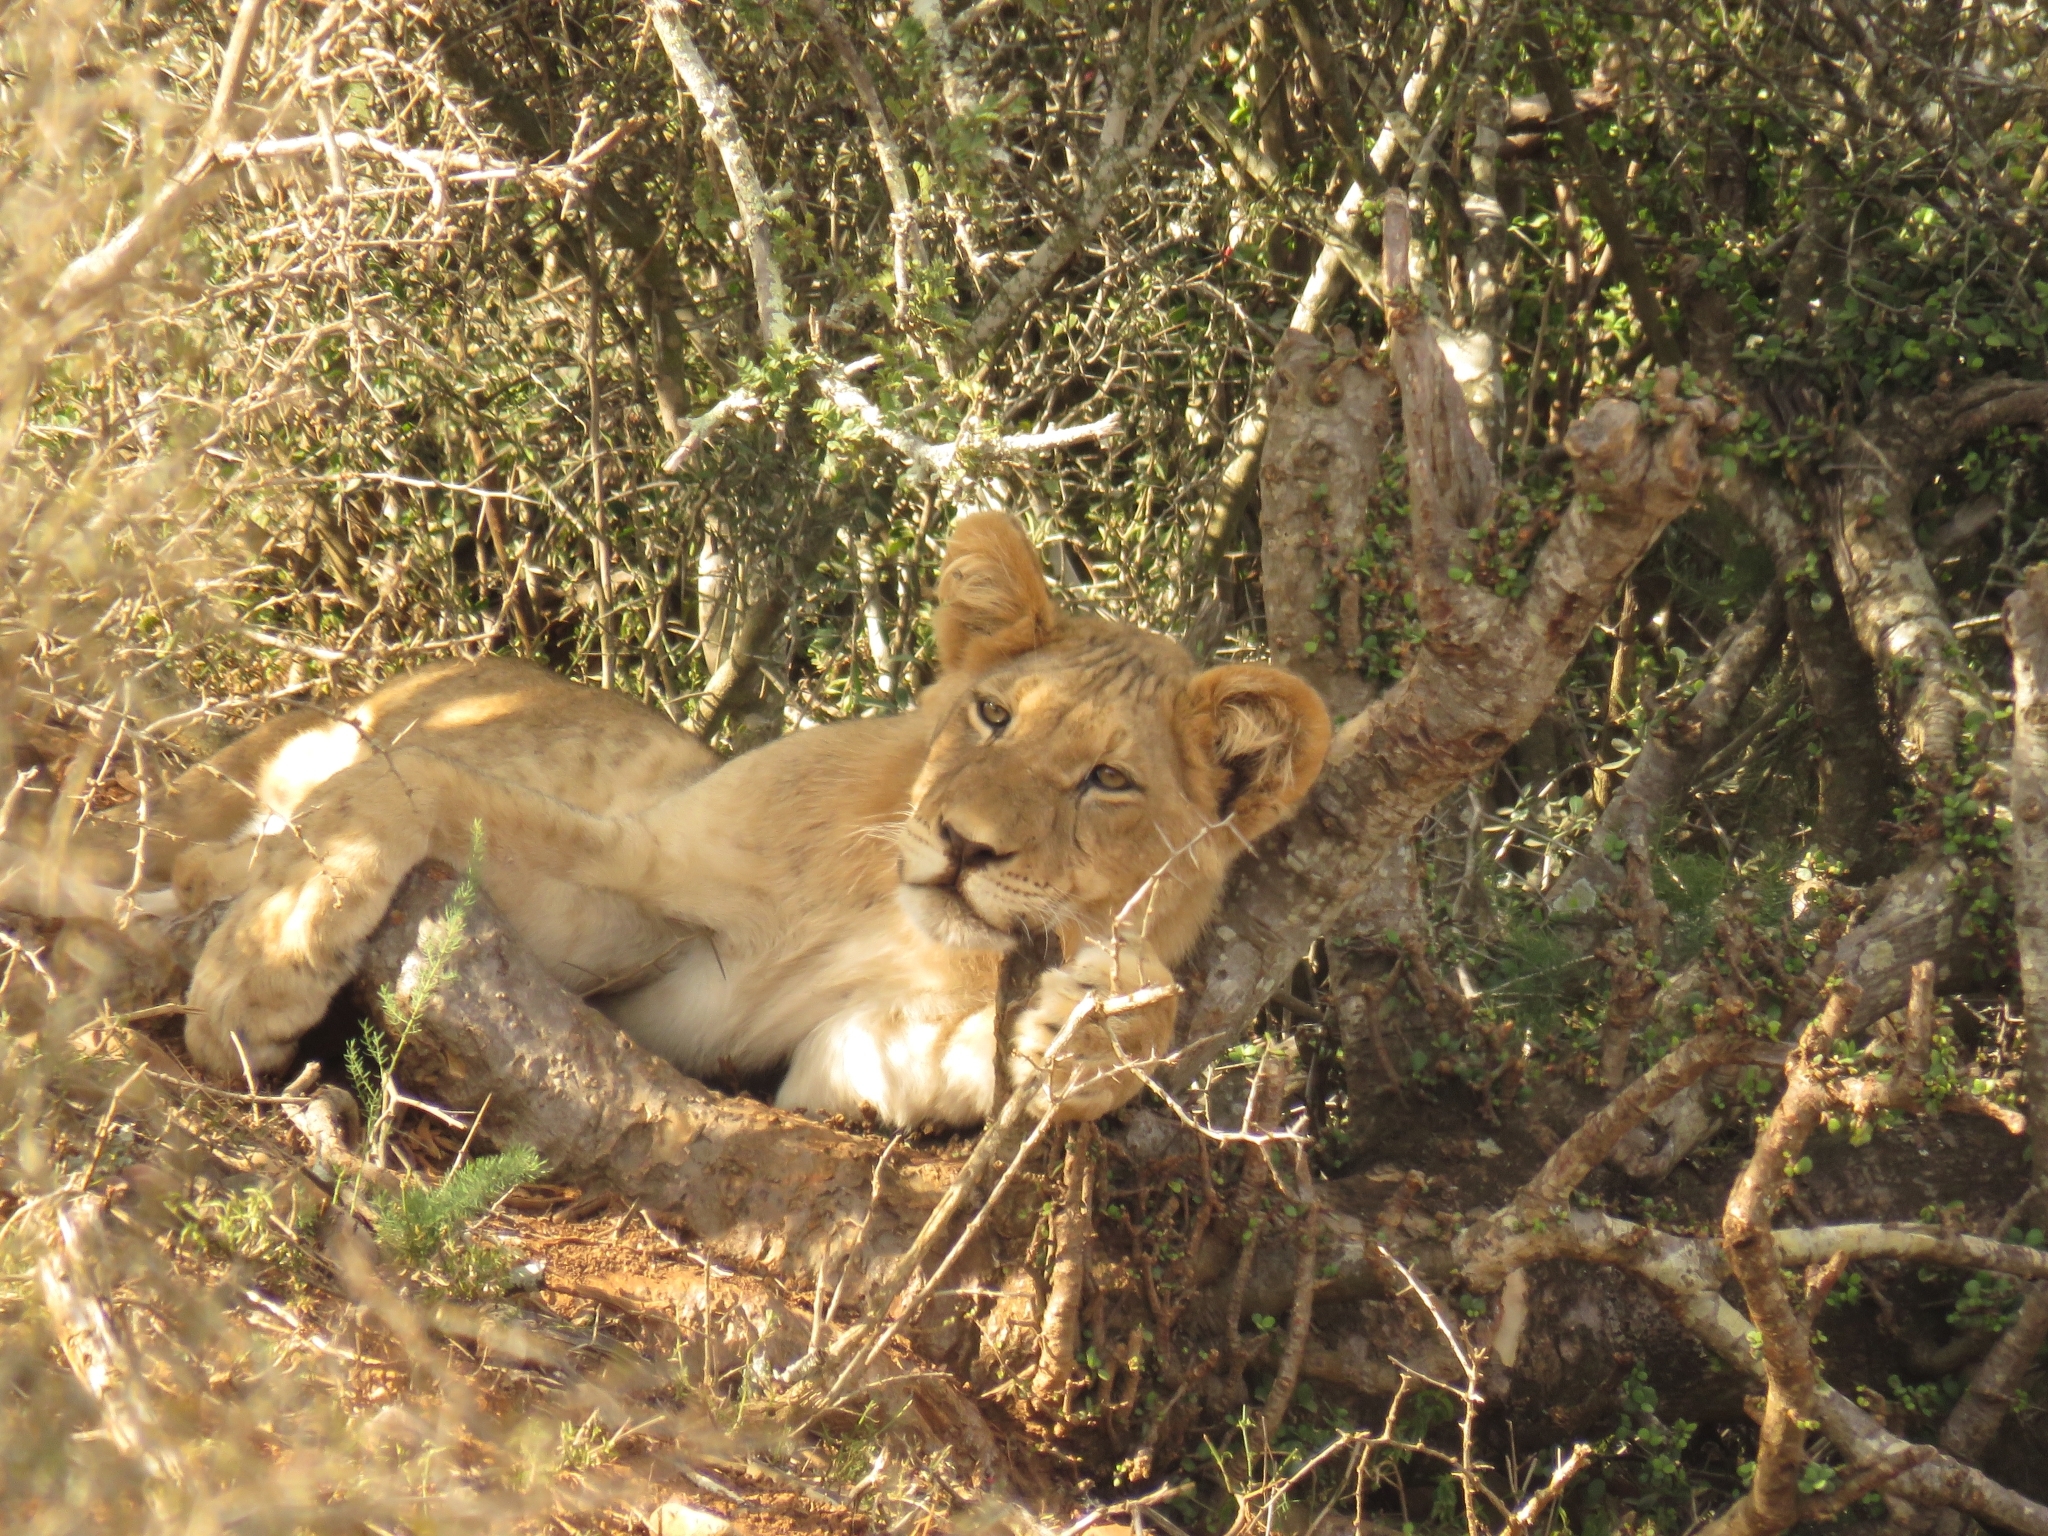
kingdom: Animalia
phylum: Chordata
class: Mammalia
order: Carnivora
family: Felidae
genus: Panthera
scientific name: Panthera leo
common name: Lion
